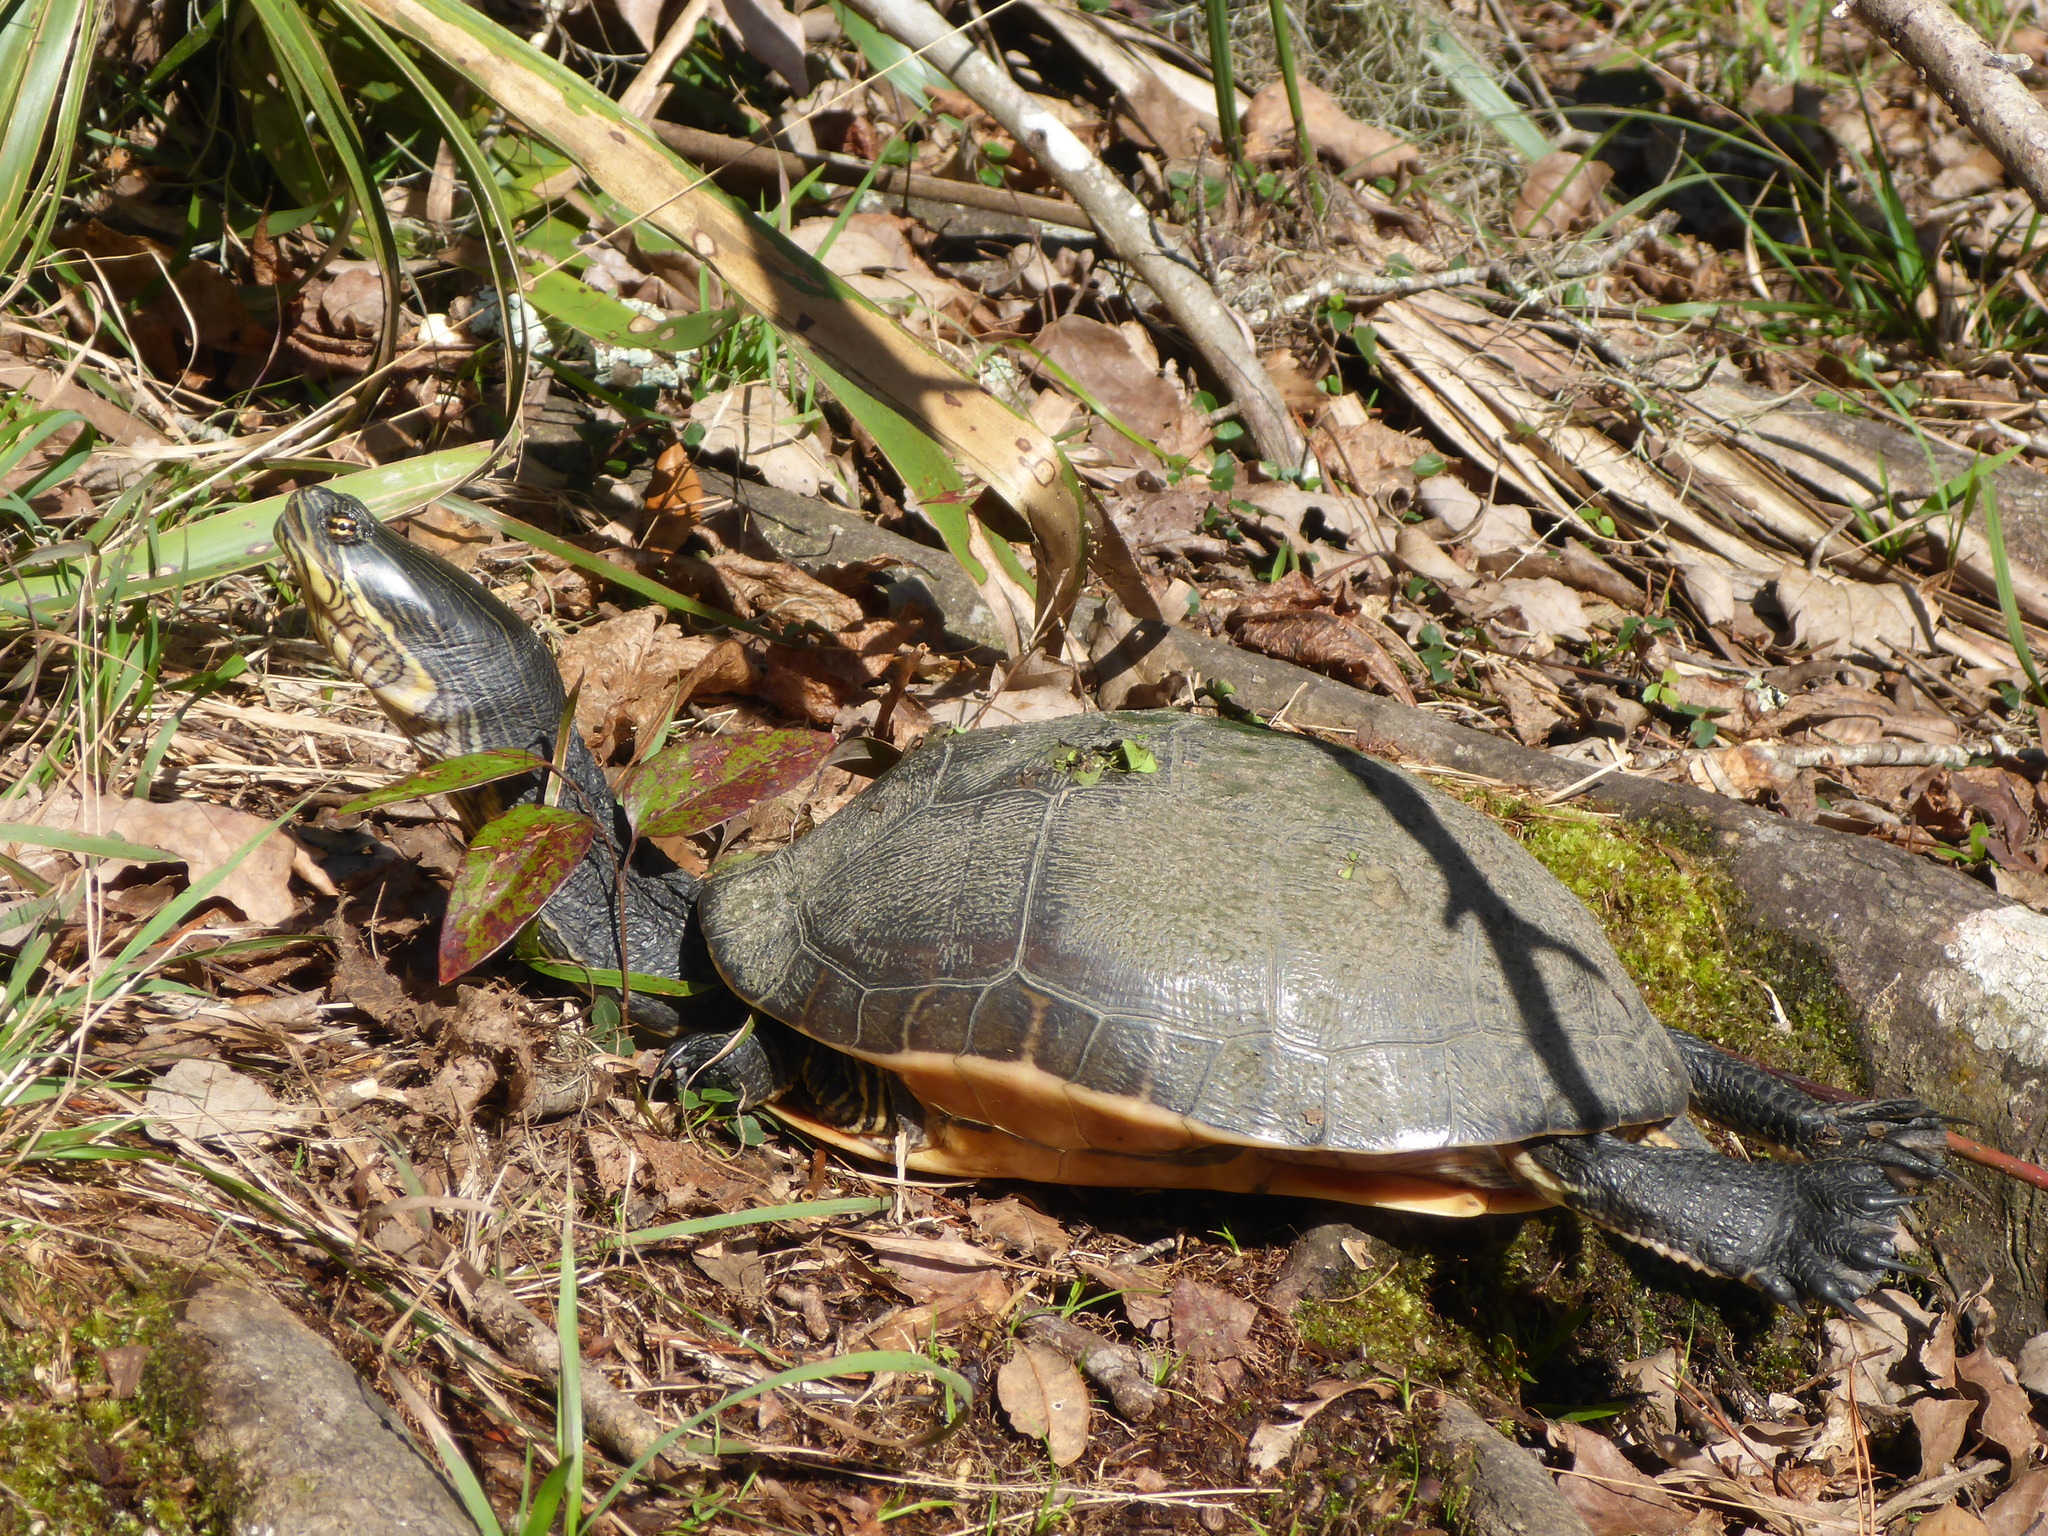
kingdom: Animalia
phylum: Chordata
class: Testudines
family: Emydidae
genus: Deirochelys
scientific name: Deirochelys reticularia
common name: Chicken turtle
